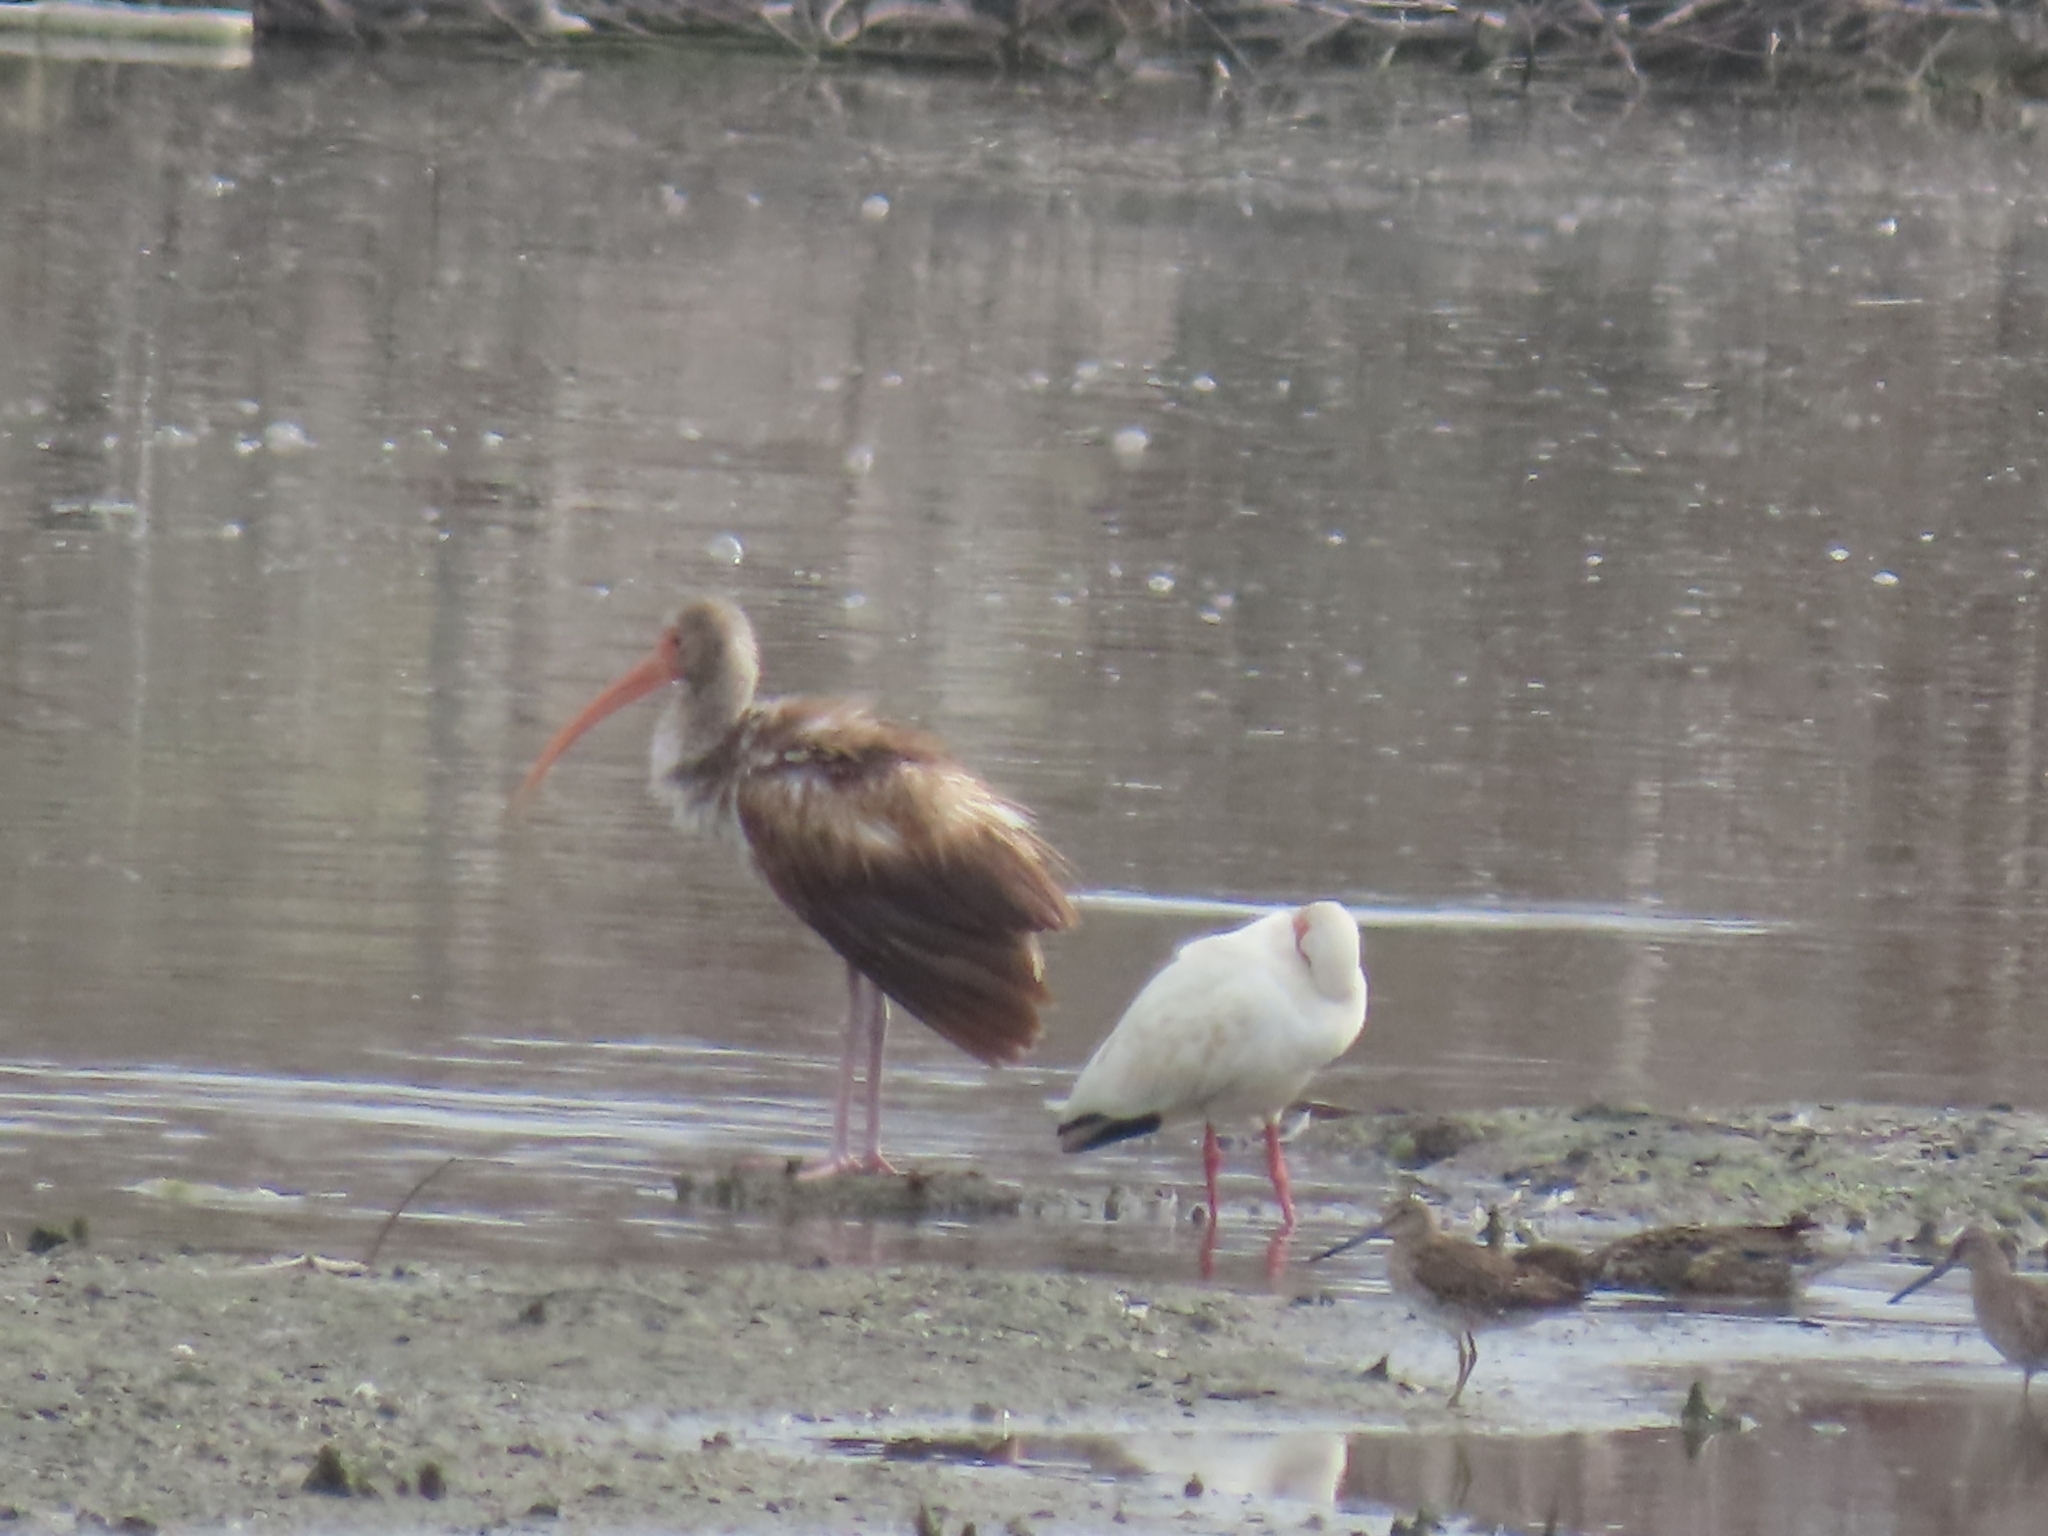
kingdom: Animalia
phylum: Chordata
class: Aves
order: Pelecaniformes
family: Threskiornithidae
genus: Eudocimus
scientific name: Eudocimus albus
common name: White ibis
